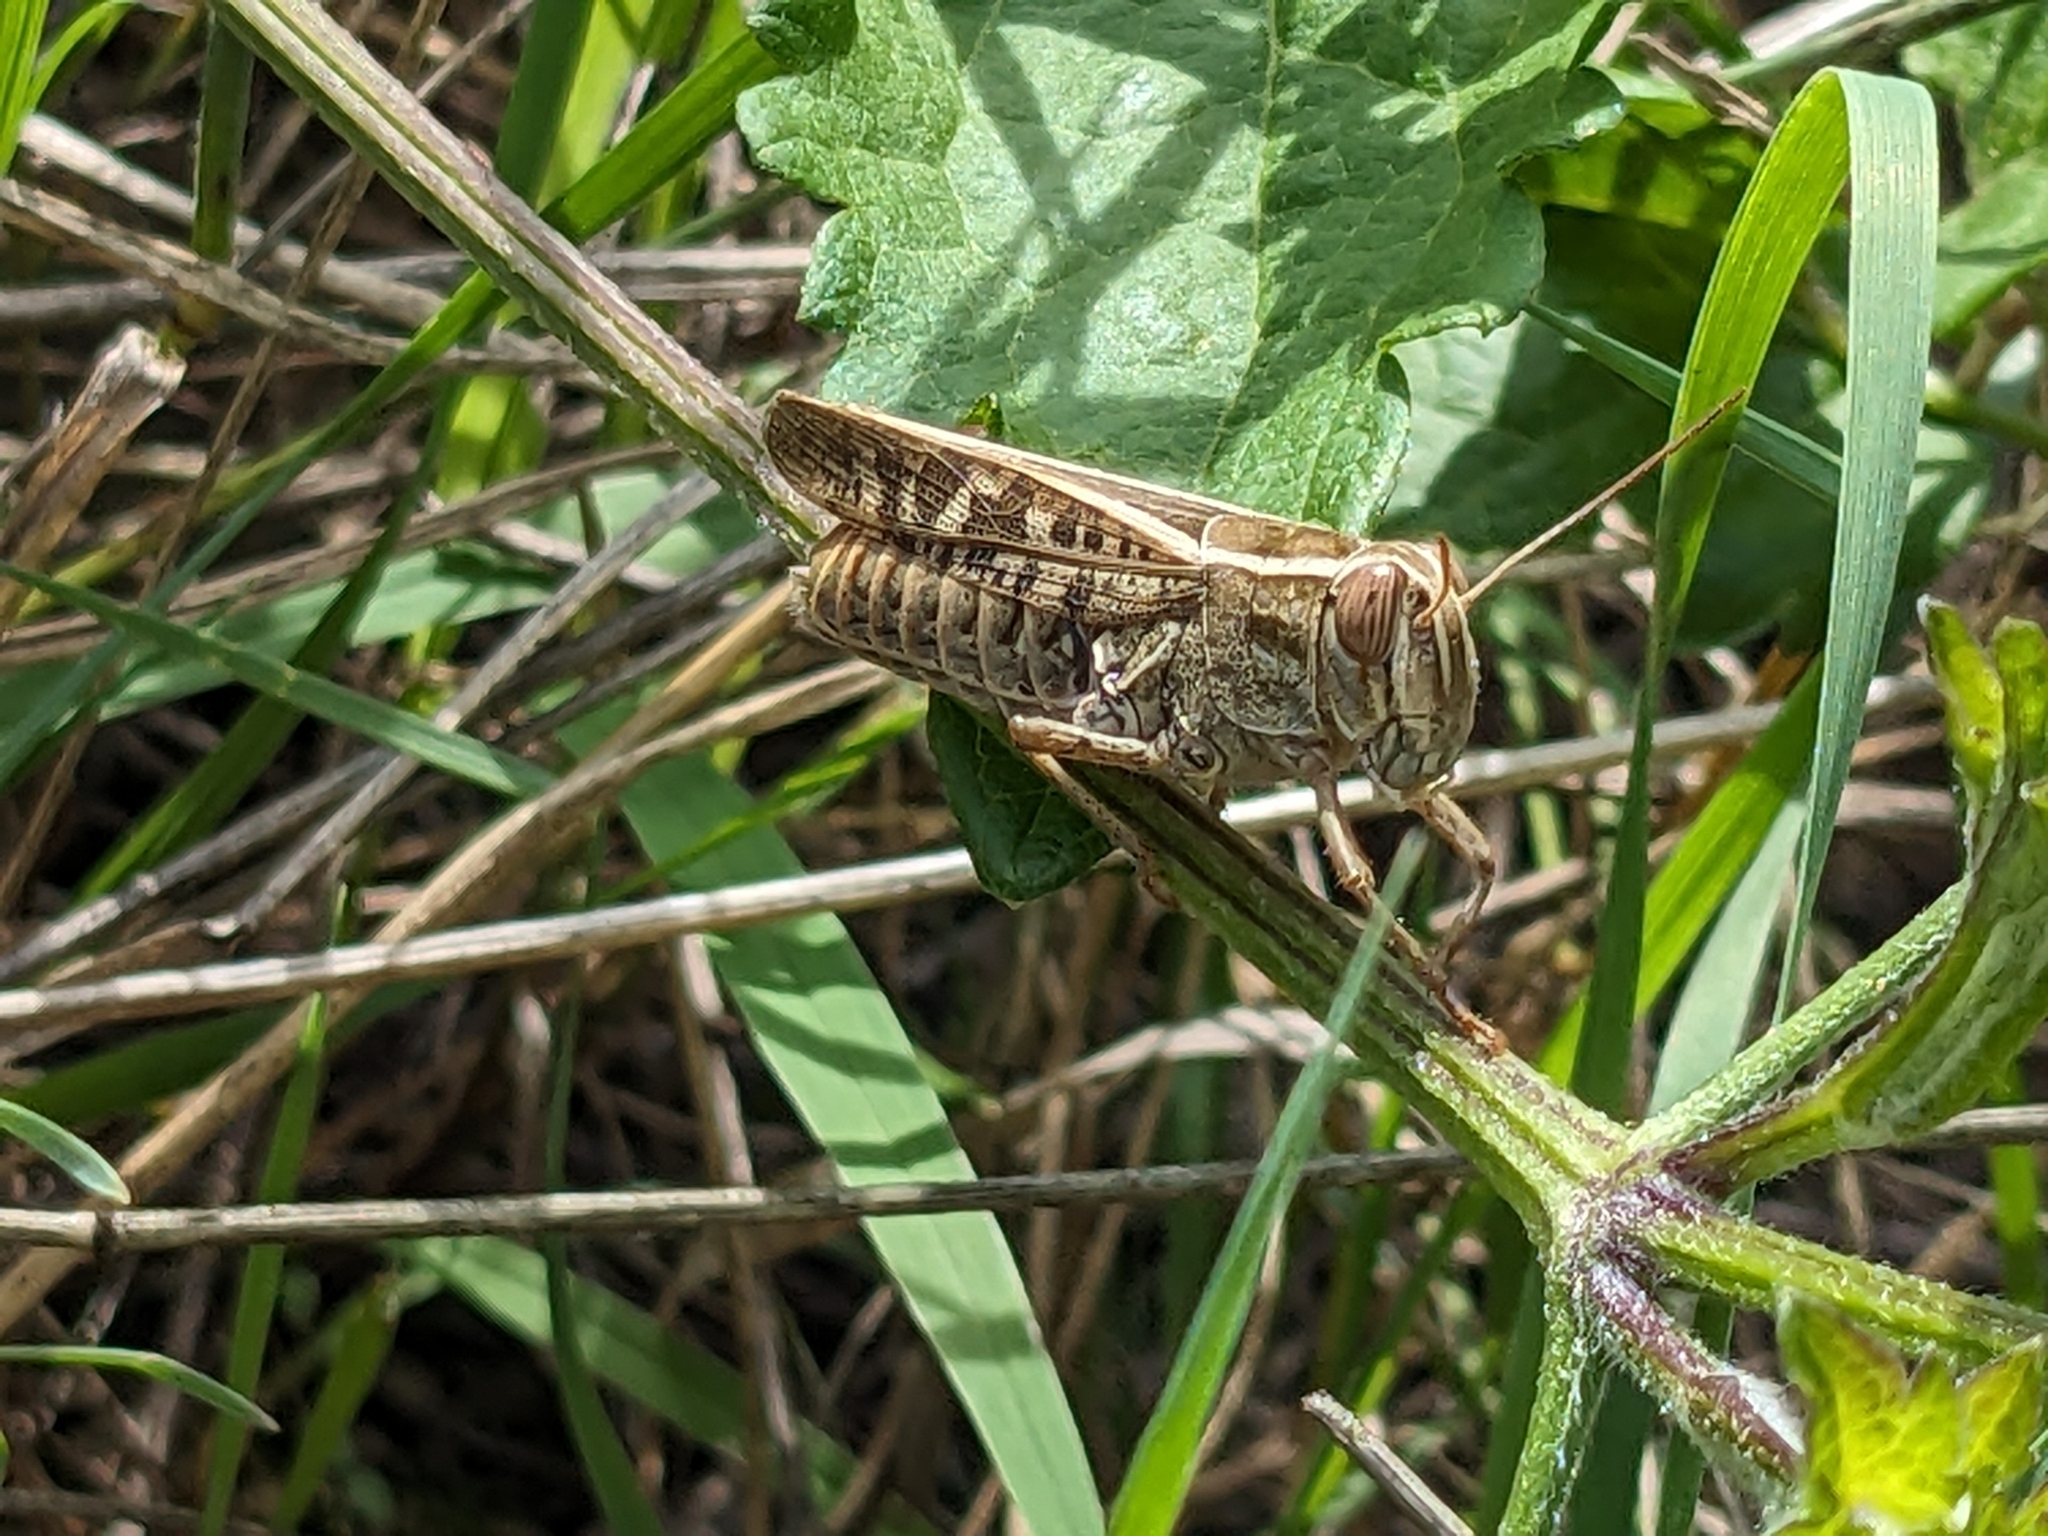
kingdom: Animalia
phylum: Arthropoda
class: Insecta
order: Orthoptera
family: Acrididae
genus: Calliptamus
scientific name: Calliptamus italicus
